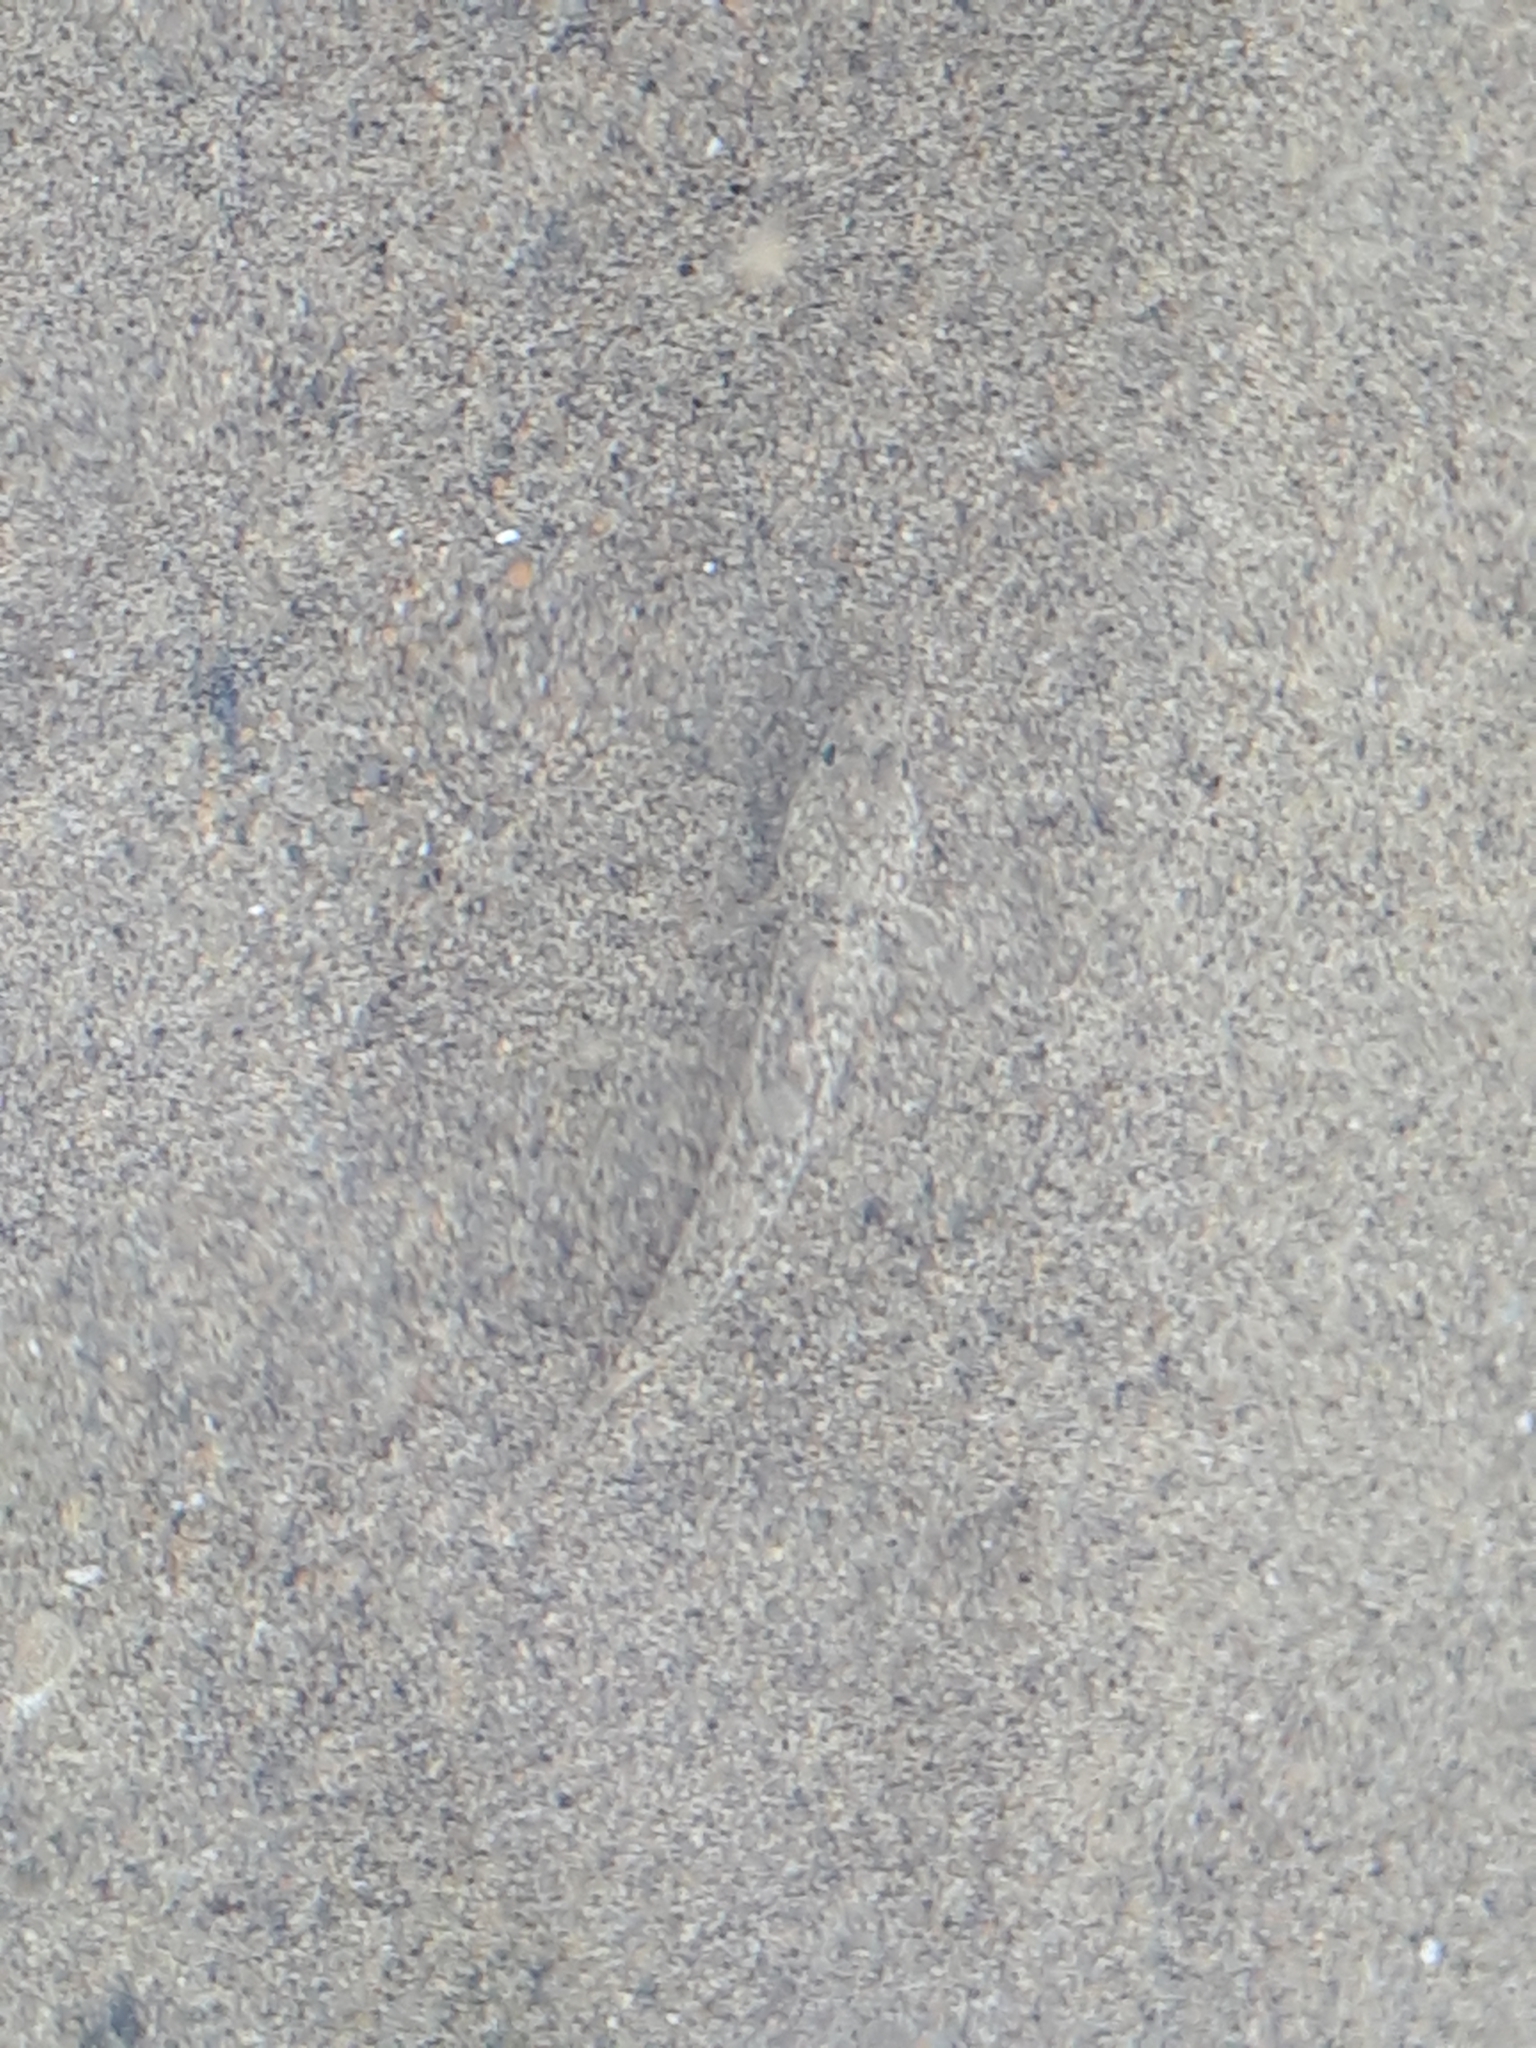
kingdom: Animalia
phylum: Chordata
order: Perciformes
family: Gobiidae
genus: Pomatoschistus
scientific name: Pomatoschistus marmoratus
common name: Marbled goby
